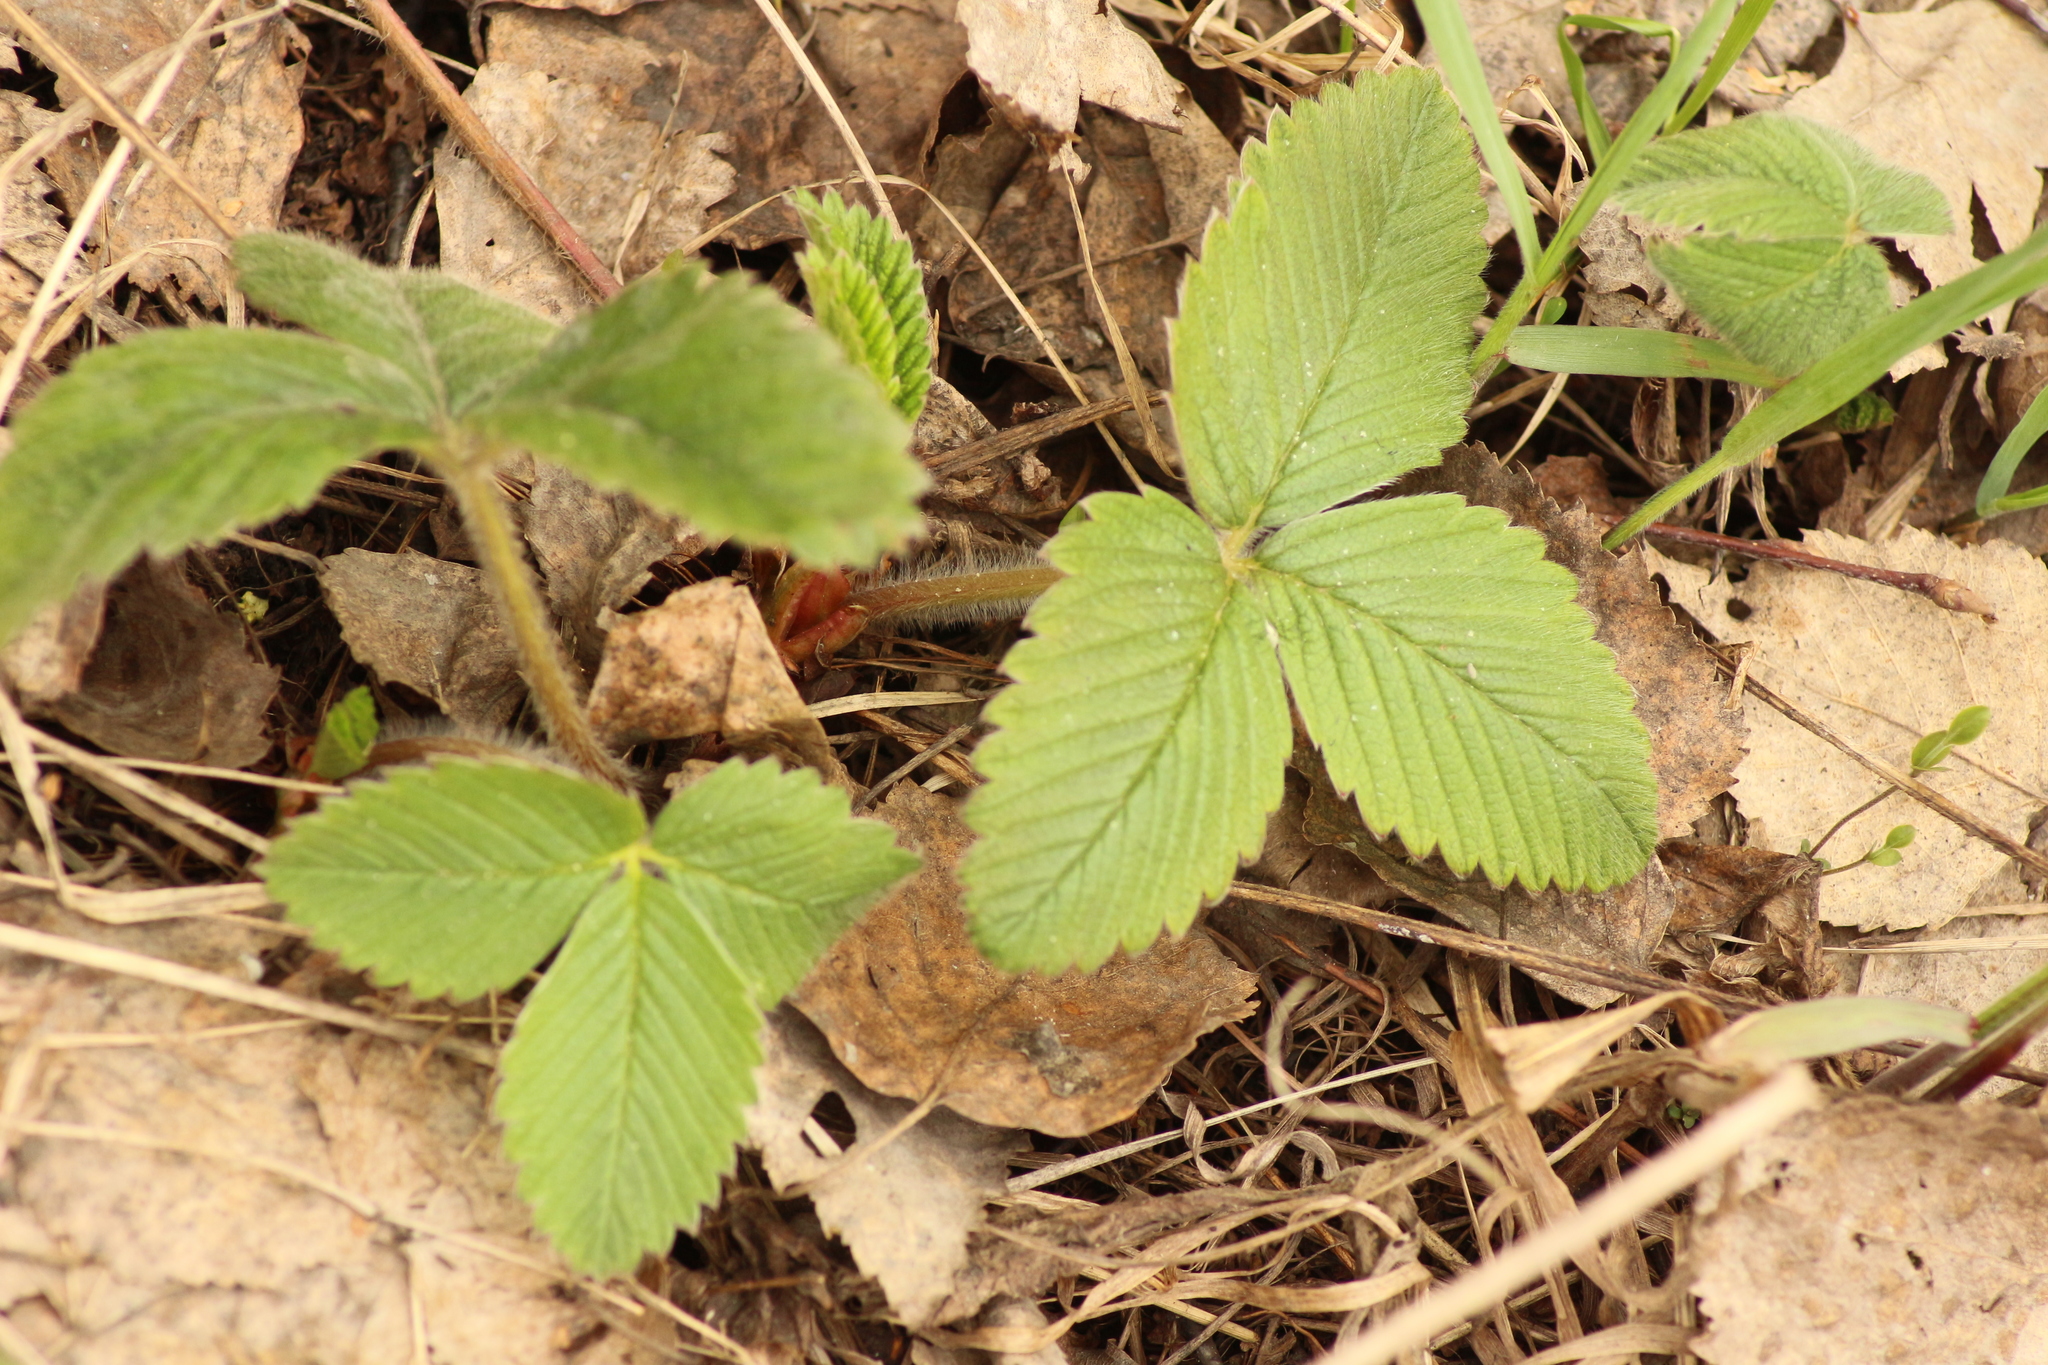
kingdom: Plantae
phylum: Tracheophyta
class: Magnoliopsida
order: Rosales
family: Rosaceae
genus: Fragaria
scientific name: Fragaria viridis
